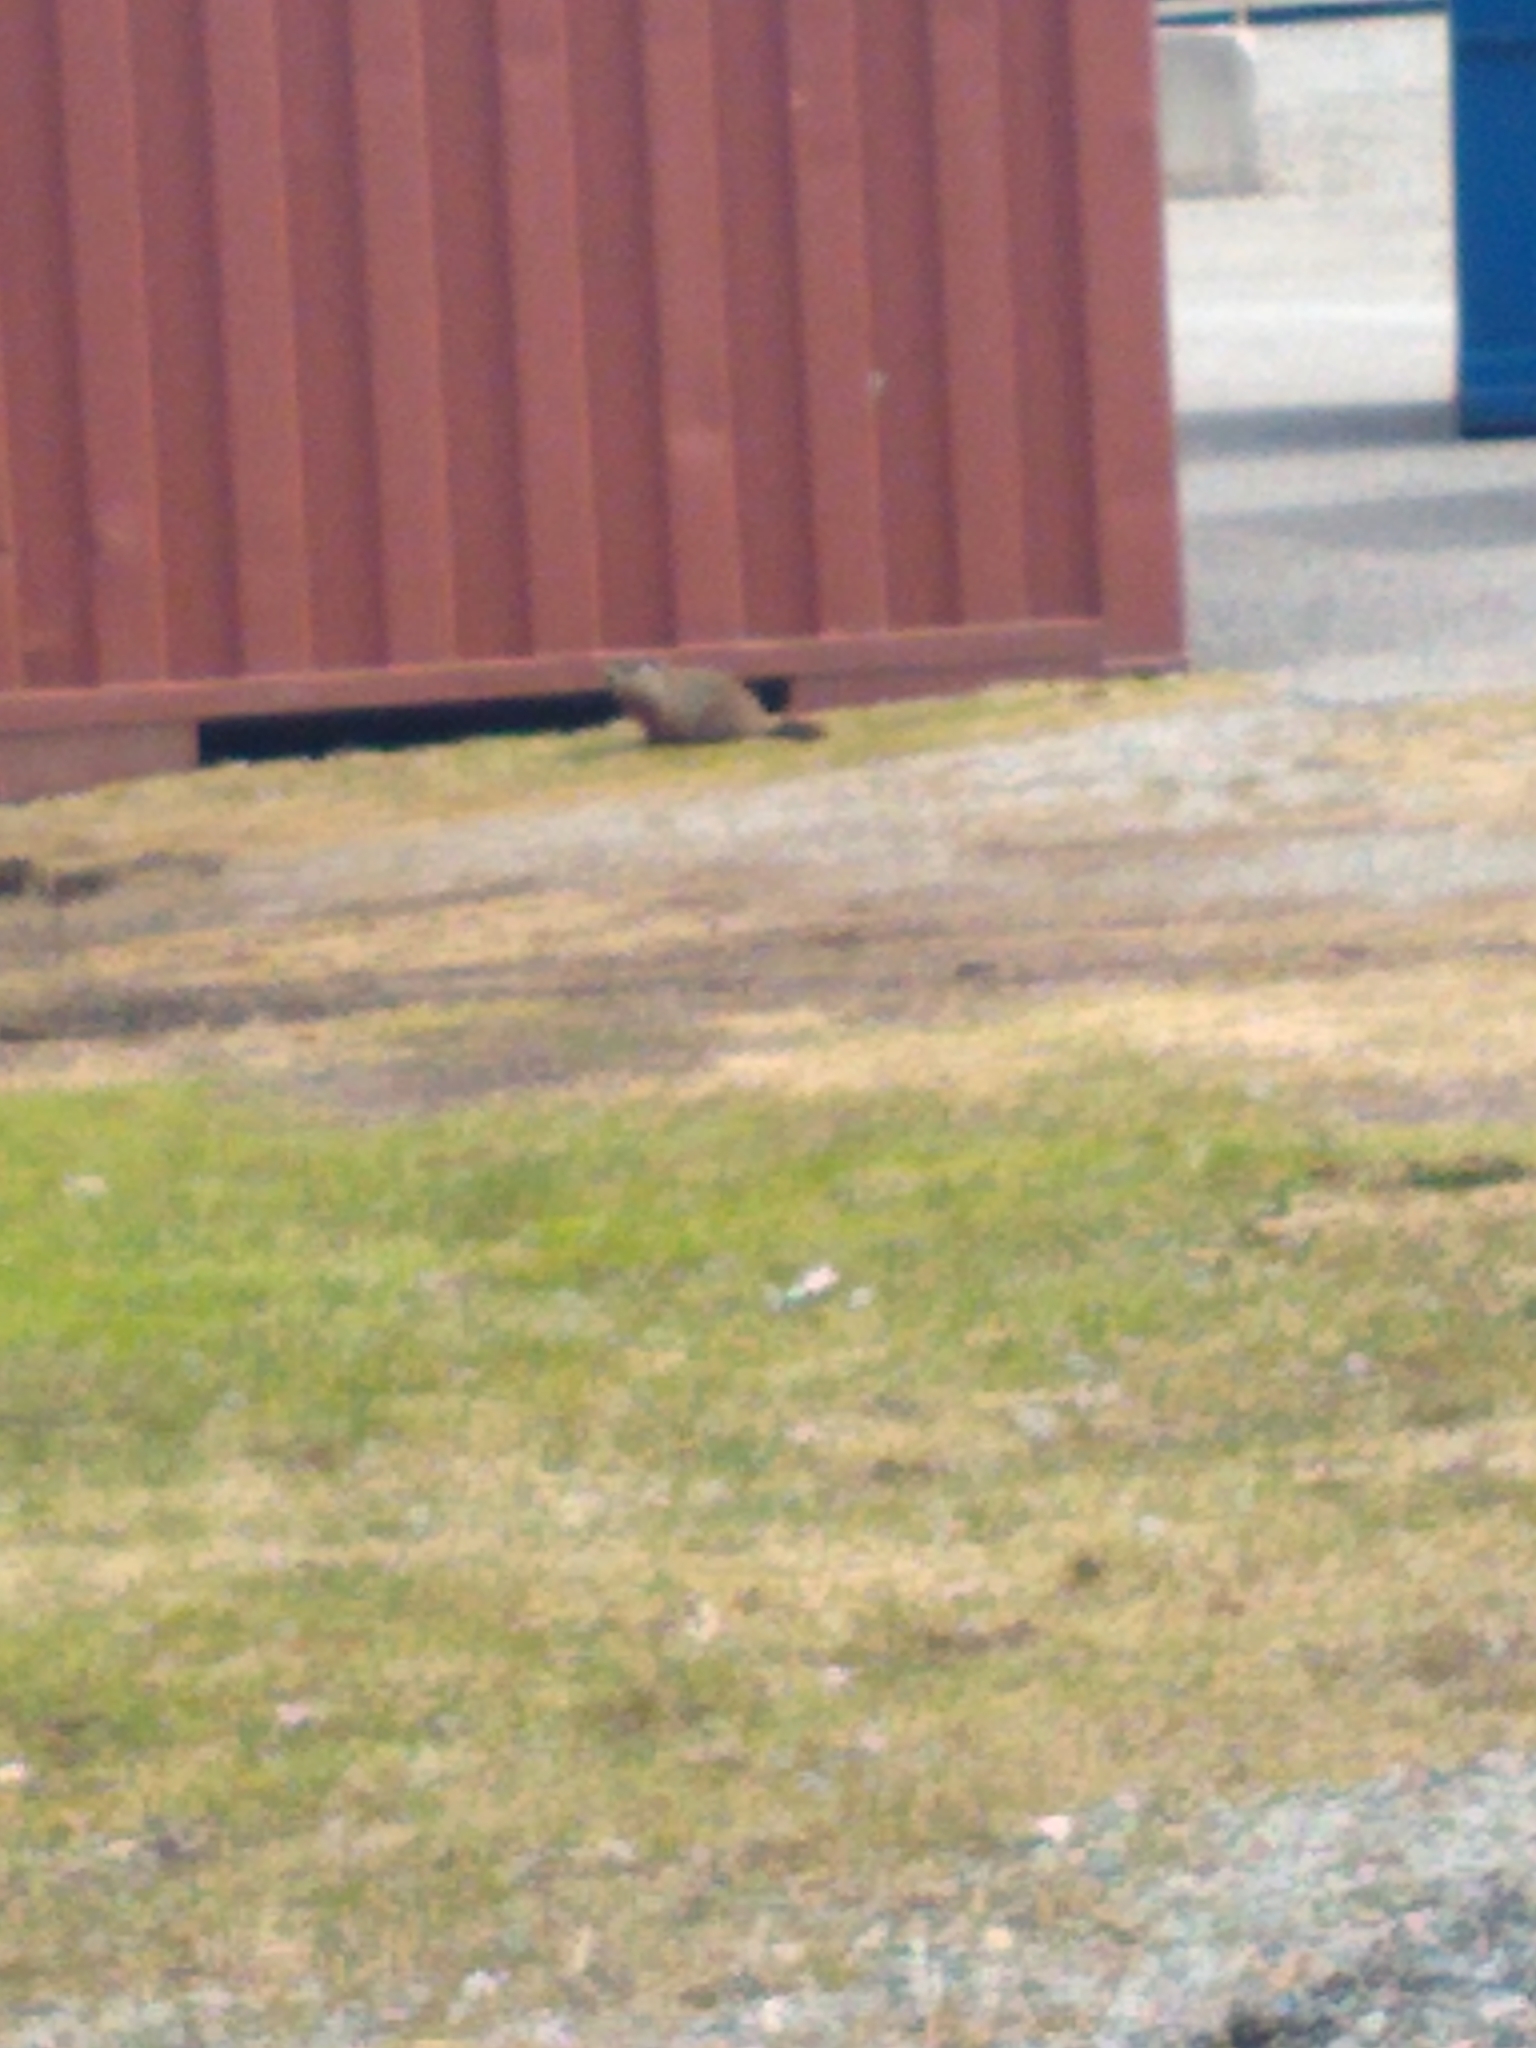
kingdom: Animalia
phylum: Chordata
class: Mammalia
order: Rodentia
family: Sciuridae
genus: Marmota
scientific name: Marmota monax
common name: Groundhog
